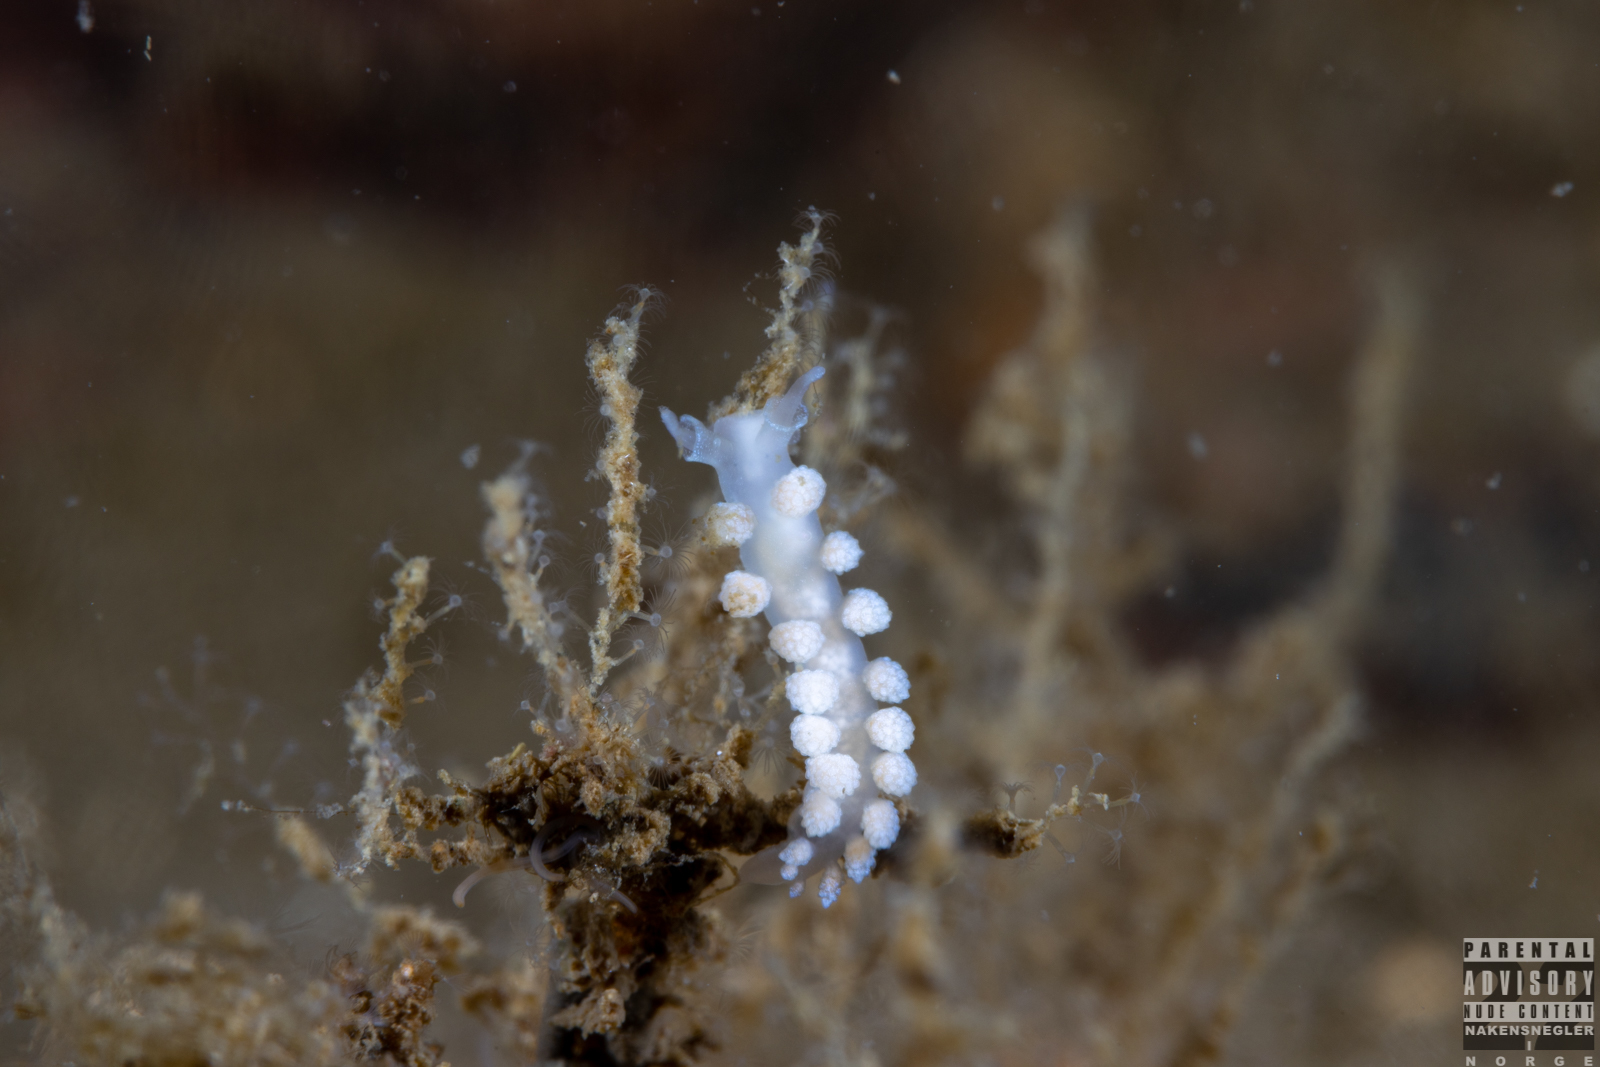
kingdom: Animalia
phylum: Mollusca
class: Gastropoda
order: Nudibranchia
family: Dotidae
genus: Doto
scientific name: Doto fragilis
